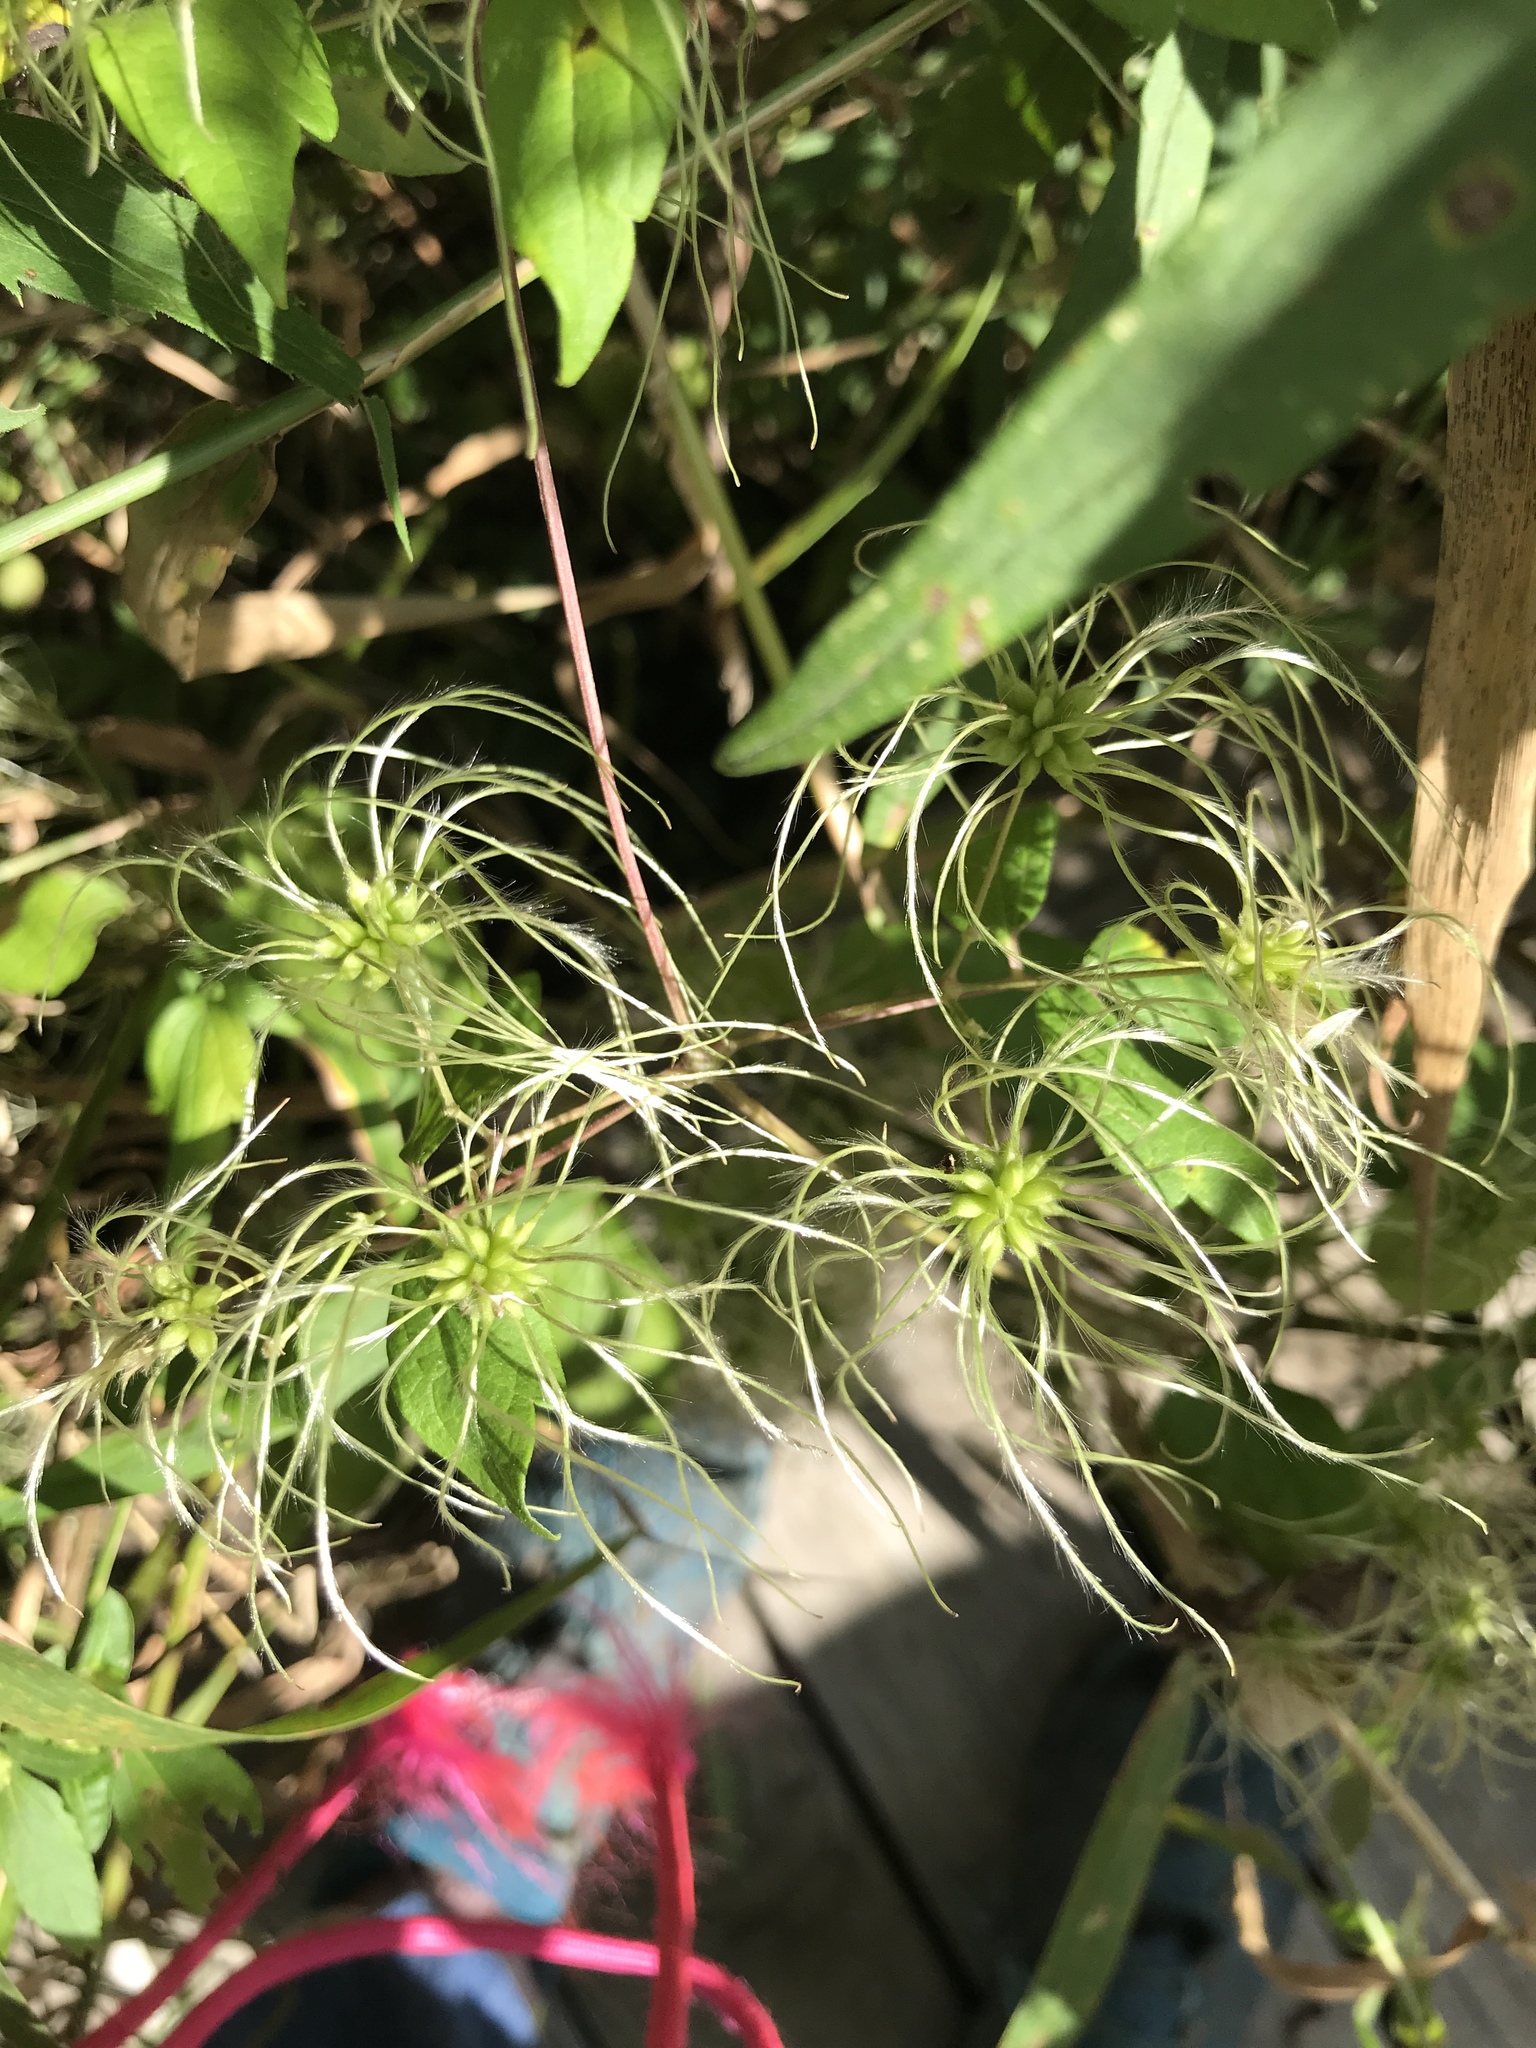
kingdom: Plantae
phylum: Tracheophyta
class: Magnoliopsida
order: Ranunculales
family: Ranunculaceae
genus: Clematis
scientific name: Clematis virginiana
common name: Virgin's-bower
